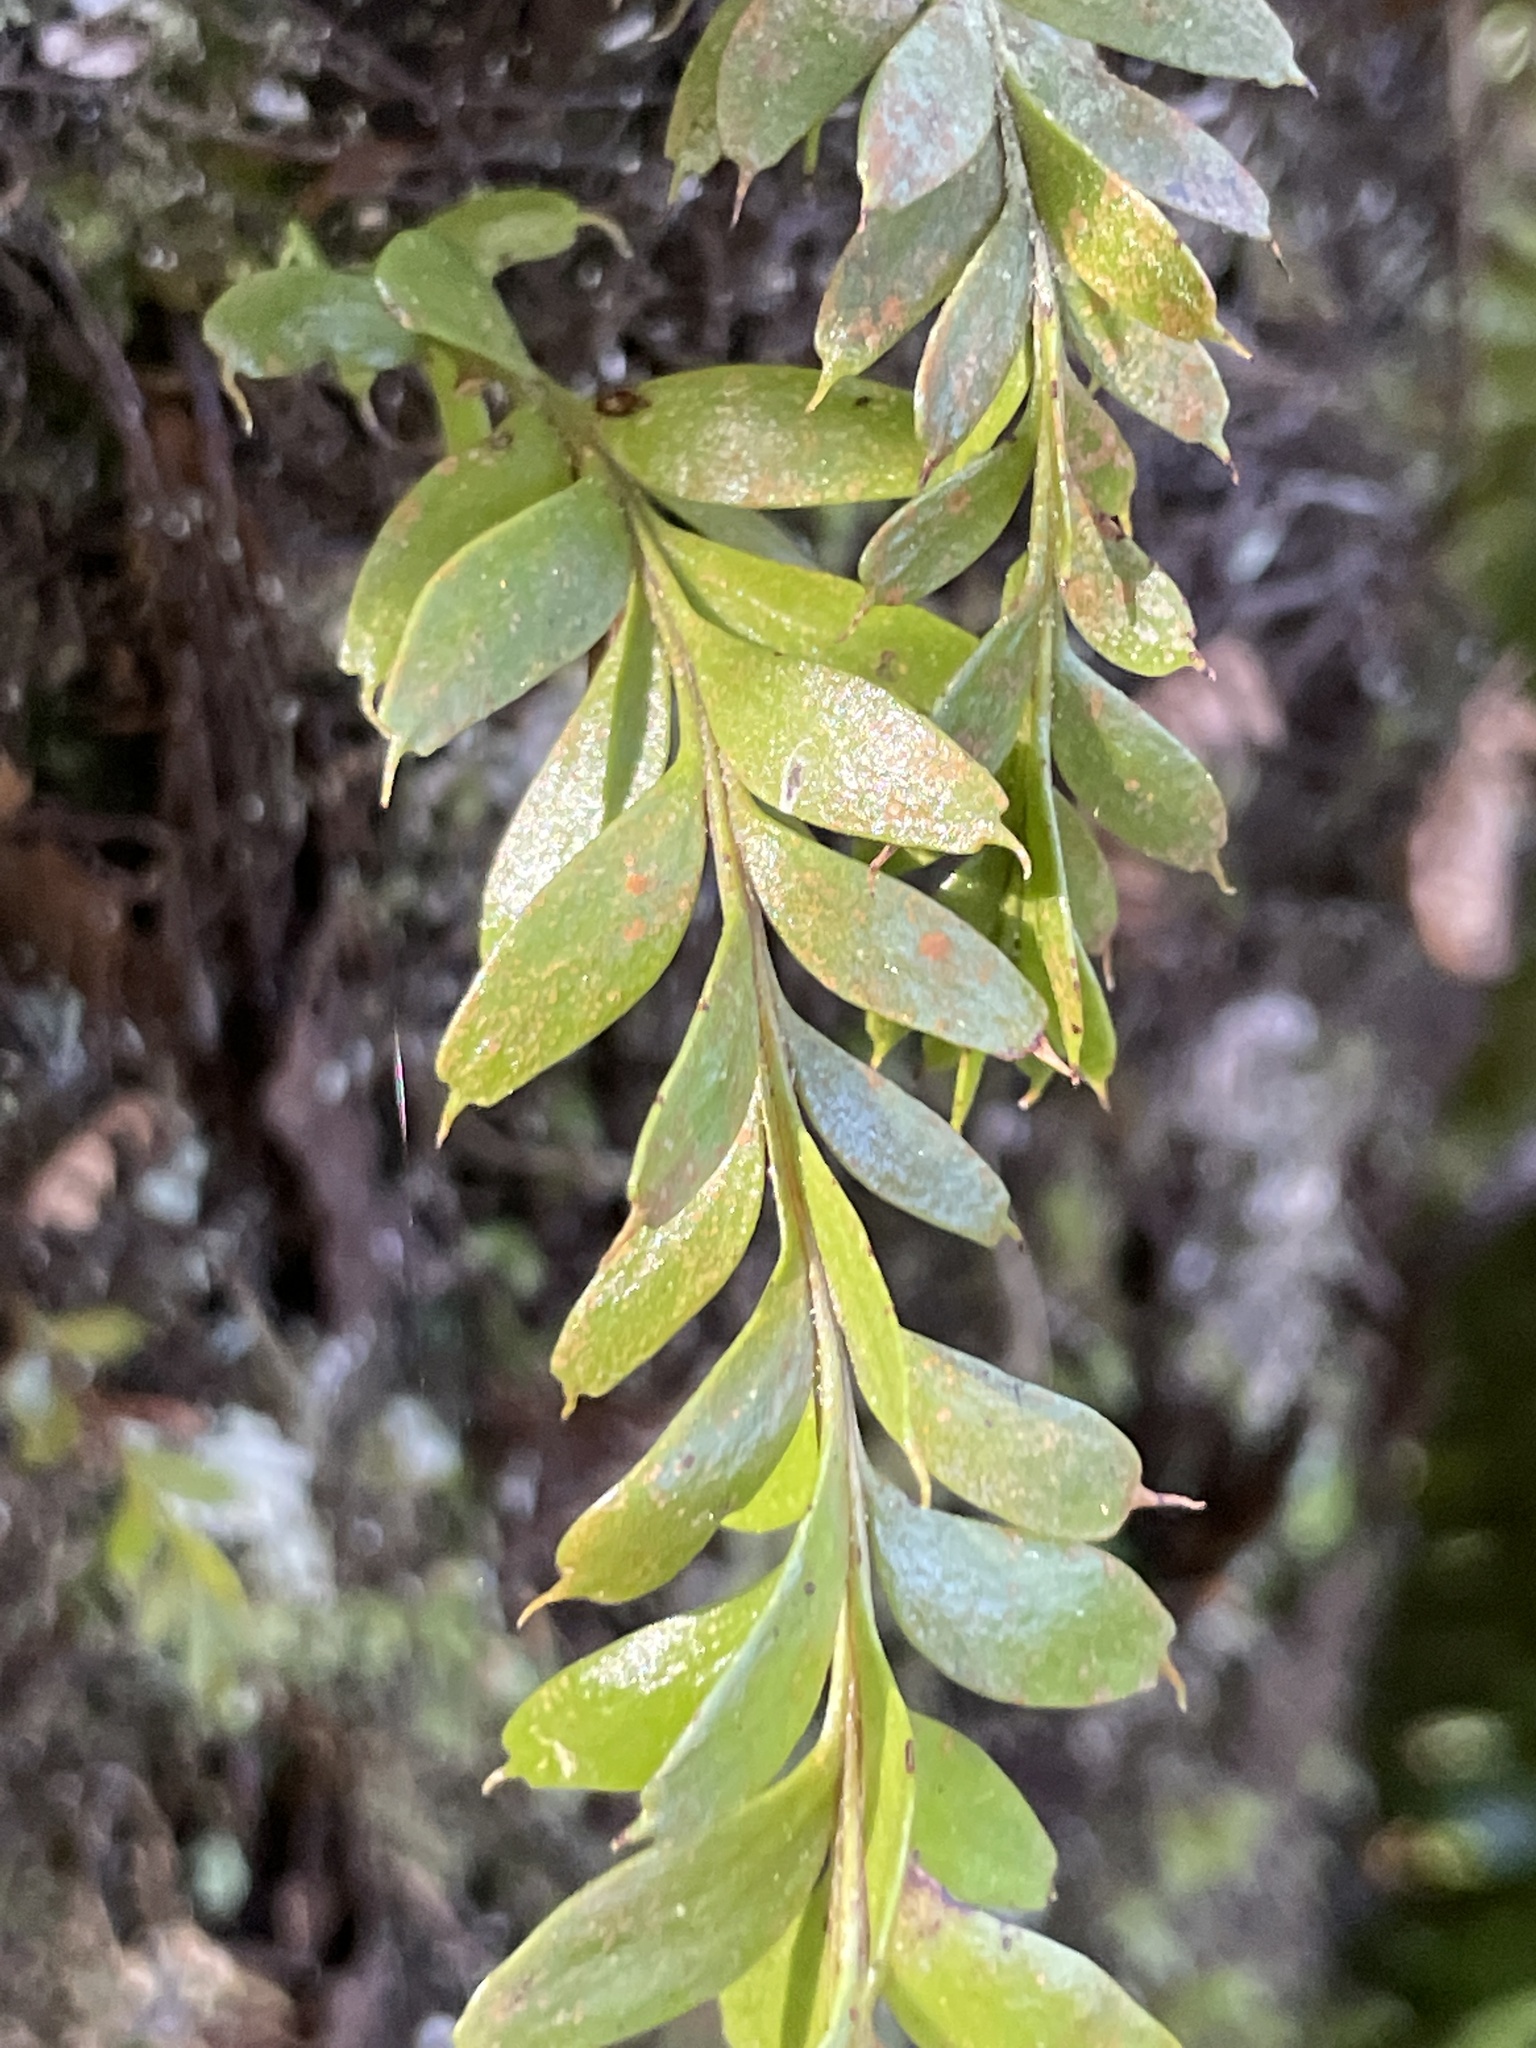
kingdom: Plantae
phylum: Tracheophyta
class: Polypodiopsida
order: Psilotales
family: Psilotaceae
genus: Tmesipteris
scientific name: Tmesipteris tannensis
